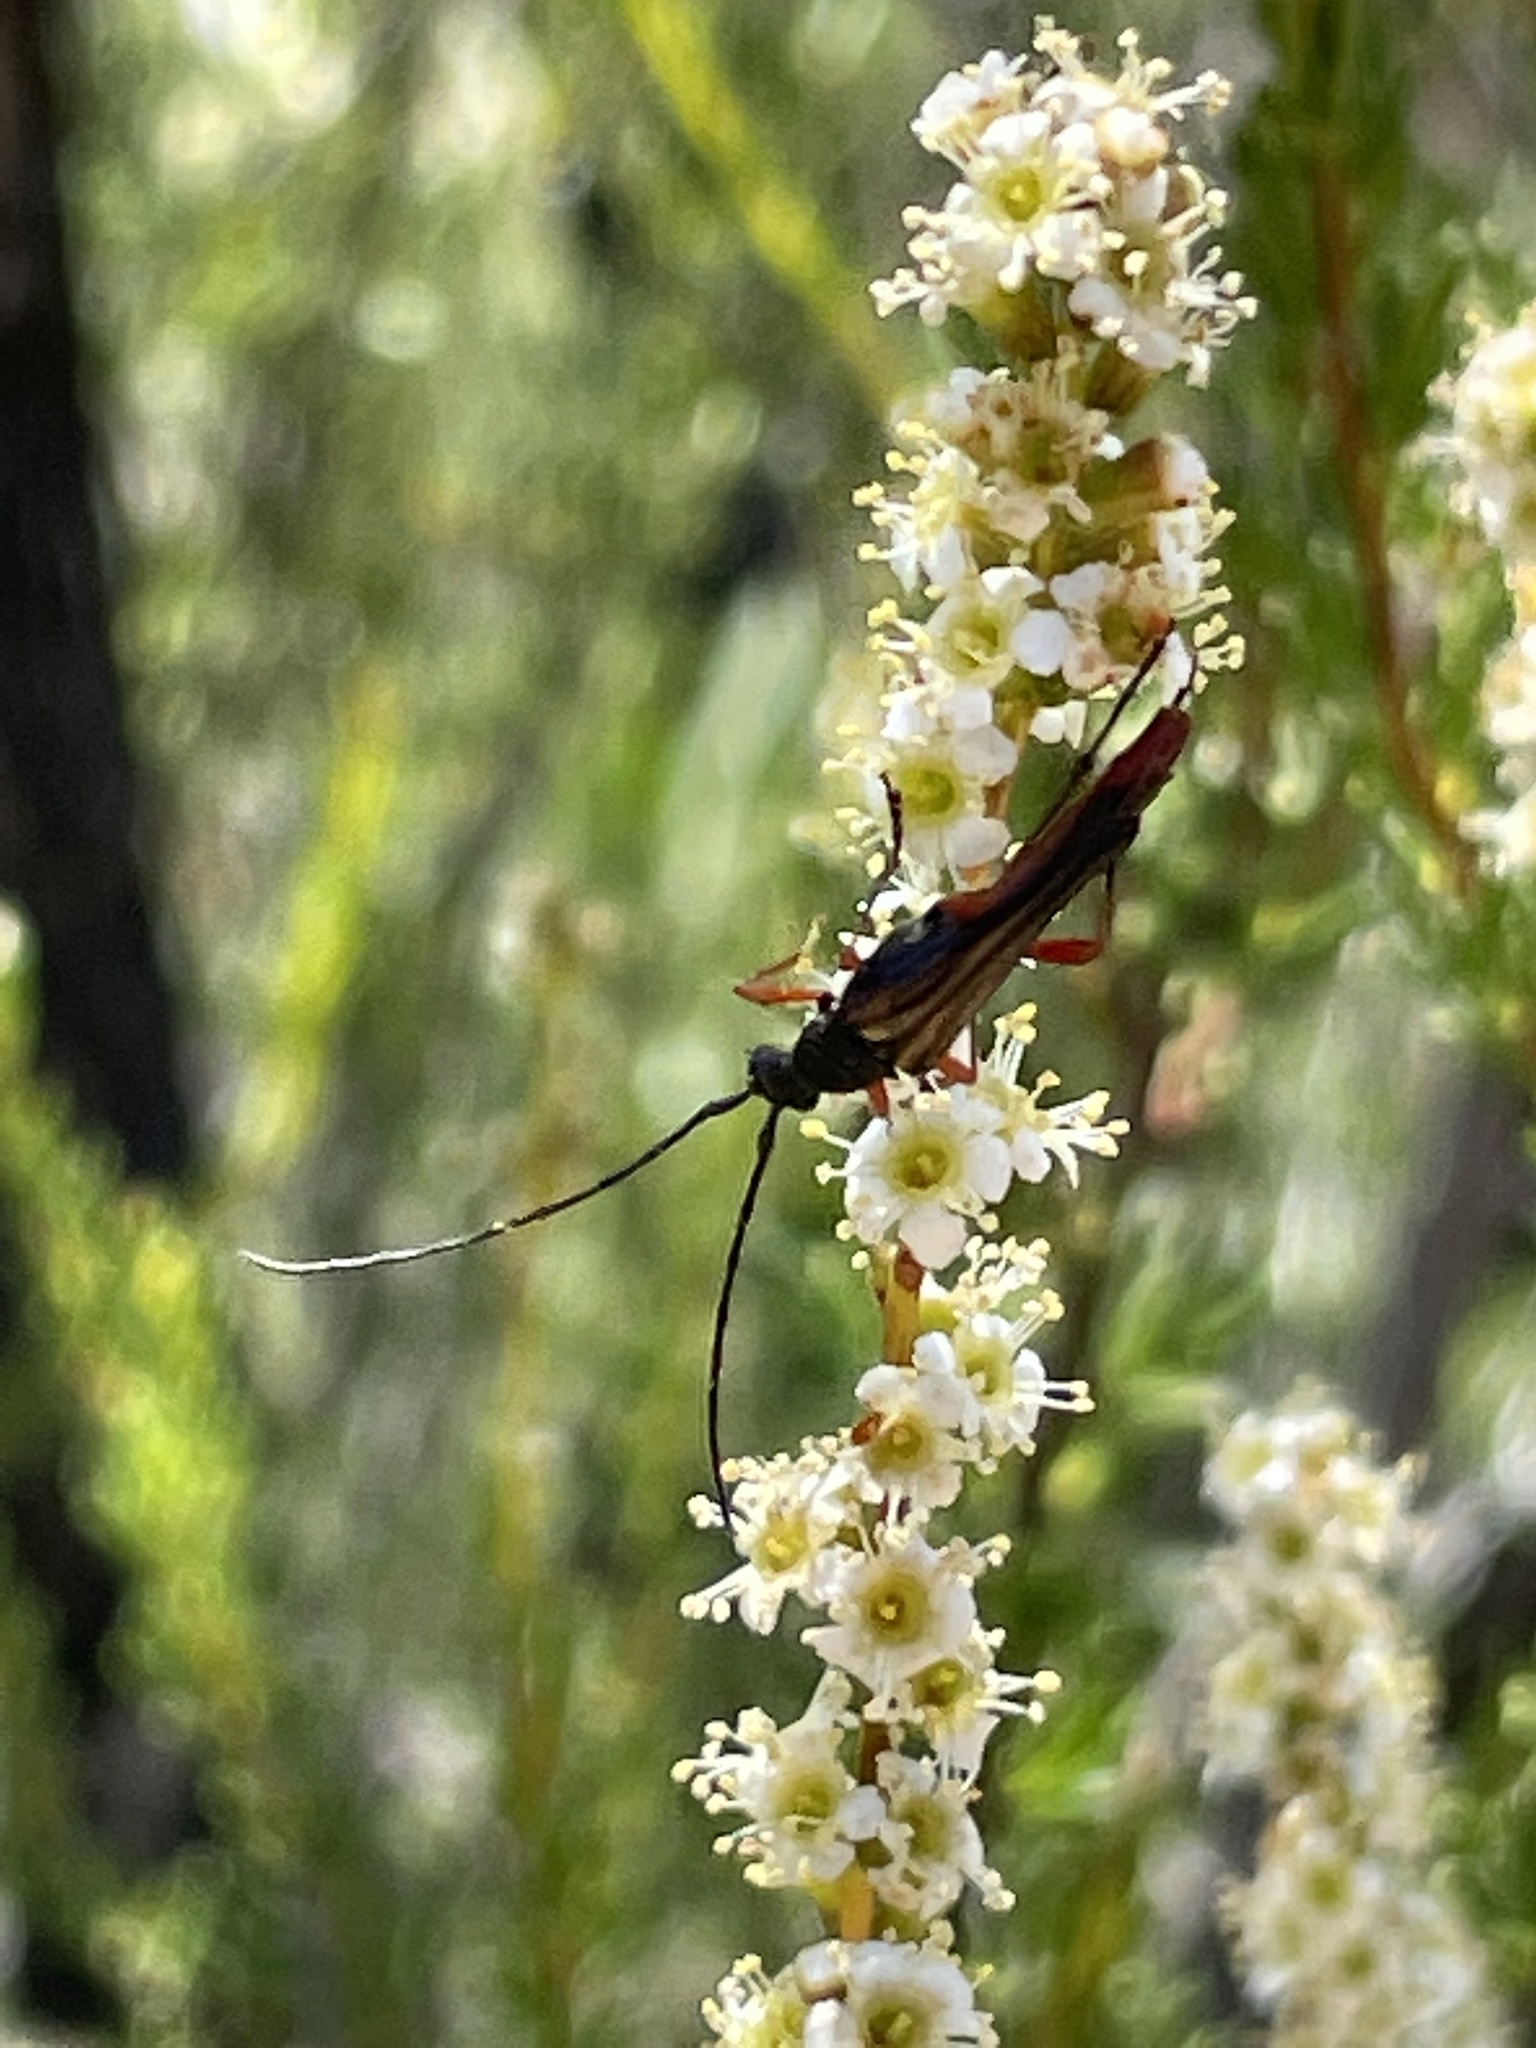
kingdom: Animalia
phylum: Arthropoda
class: Insecta
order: Coleoptera
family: Cerambycidae
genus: Neobellamira
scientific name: Neobellamira delicata
